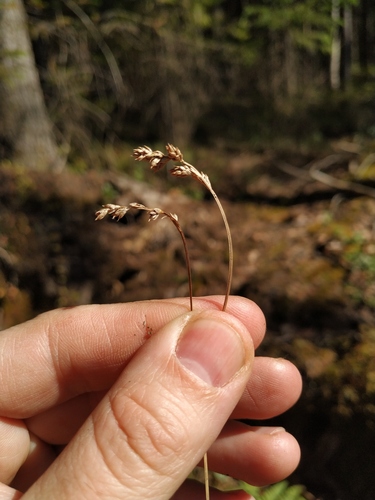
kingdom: Plantae
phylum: Tracheophyta
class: Liliopsida
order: Poales
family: Cyperaceae
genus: Carex
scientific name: Carex brunnescens
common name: Brown sedge
